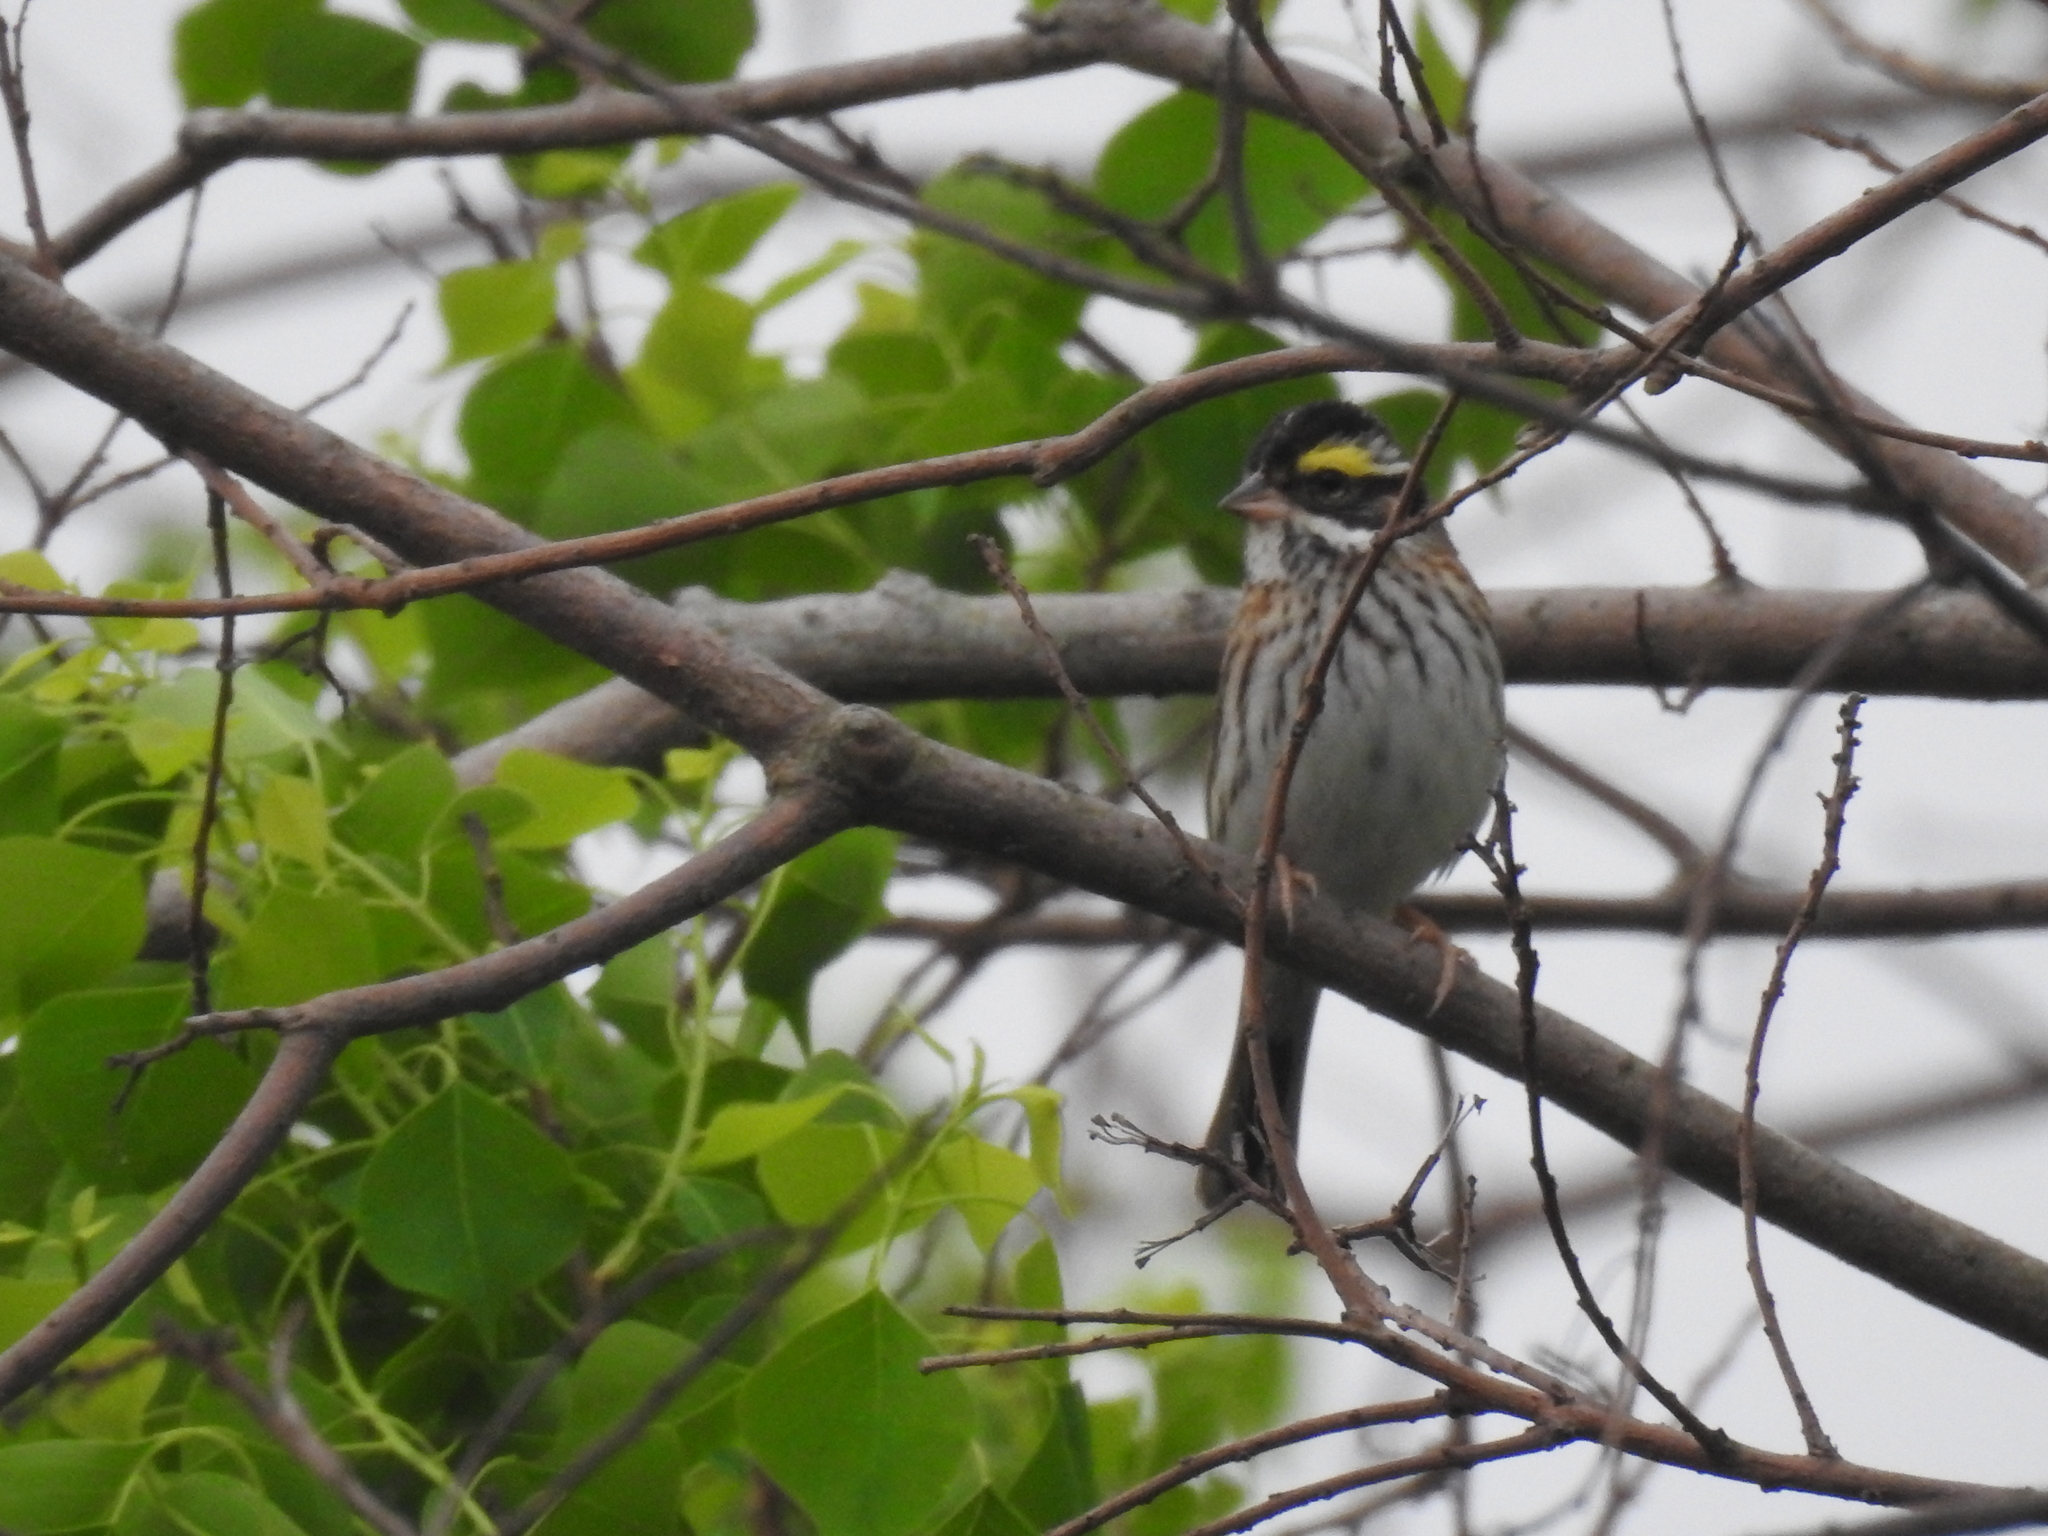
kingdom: Animalia
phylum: Chordata
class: Aves
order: Passeriformes
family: Emberizidae
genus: Emberiza
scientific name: Emberiza chrysophrys
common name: Yellow-browed bunting
